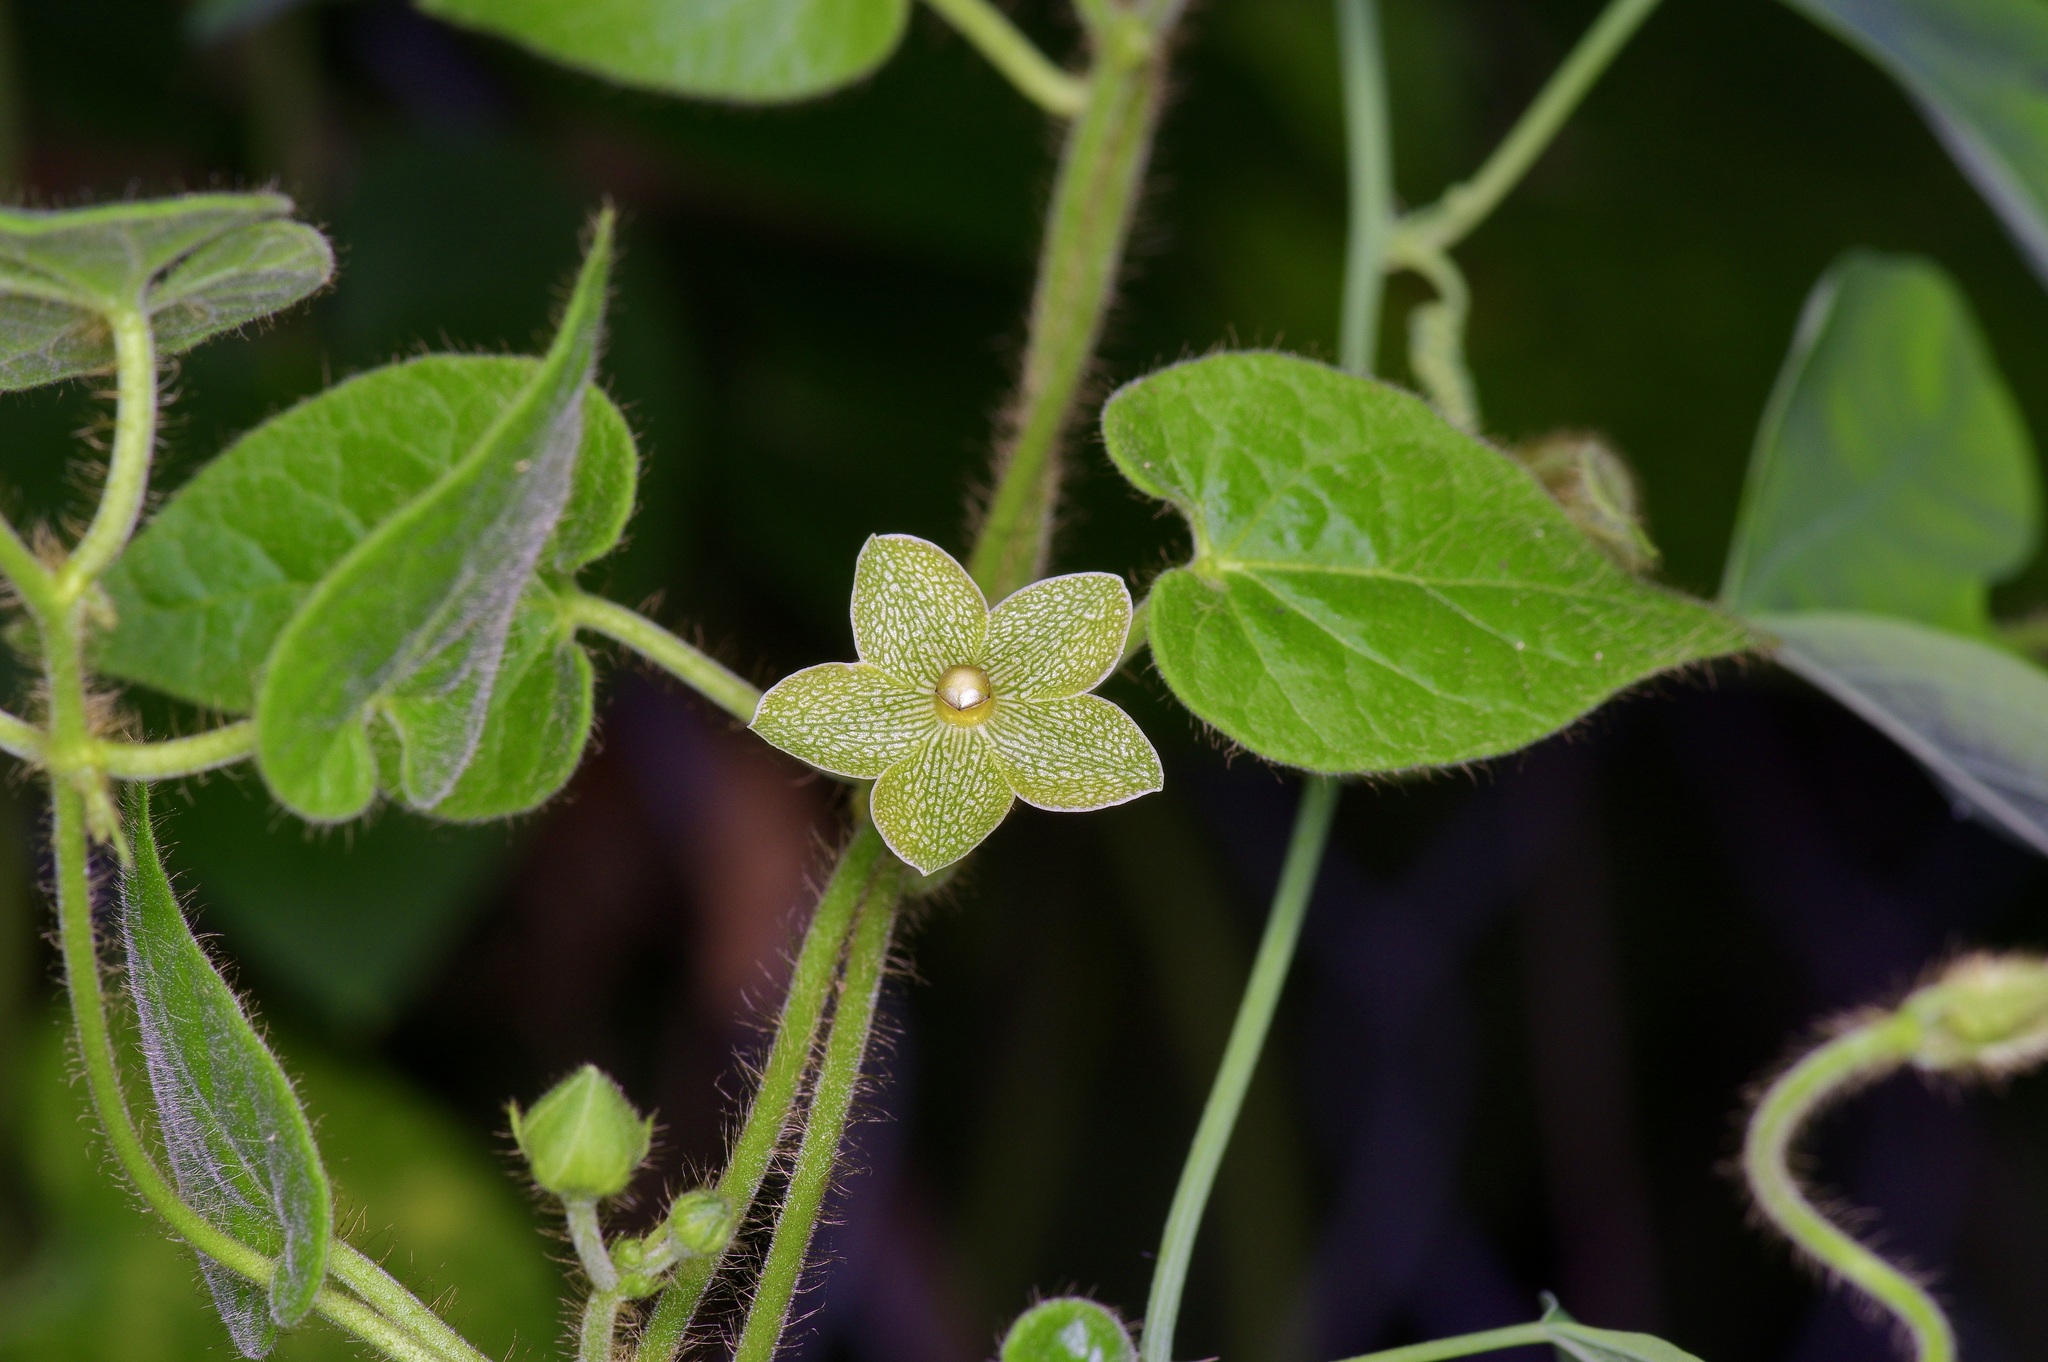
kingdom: Plantae
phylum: Tracheophyta
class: Magnoliopsida
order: Gentianales
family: Apocynaceae
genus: Dictyanthus
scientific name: Dictyanthus reticulatus
